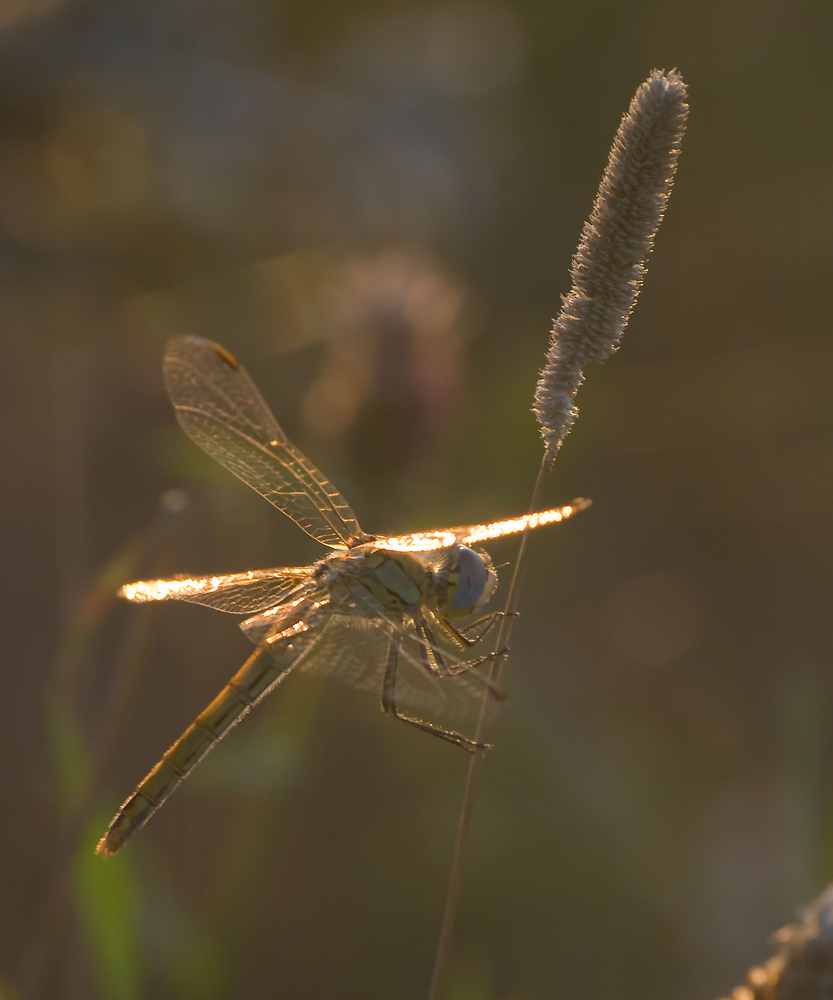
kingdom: Animalia
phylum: Arthropoda
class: Insecta
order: Odonata
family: Libellulidae
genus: Sympetrum
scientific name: Sympetrum fonscolombii
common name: Red-veined darter
